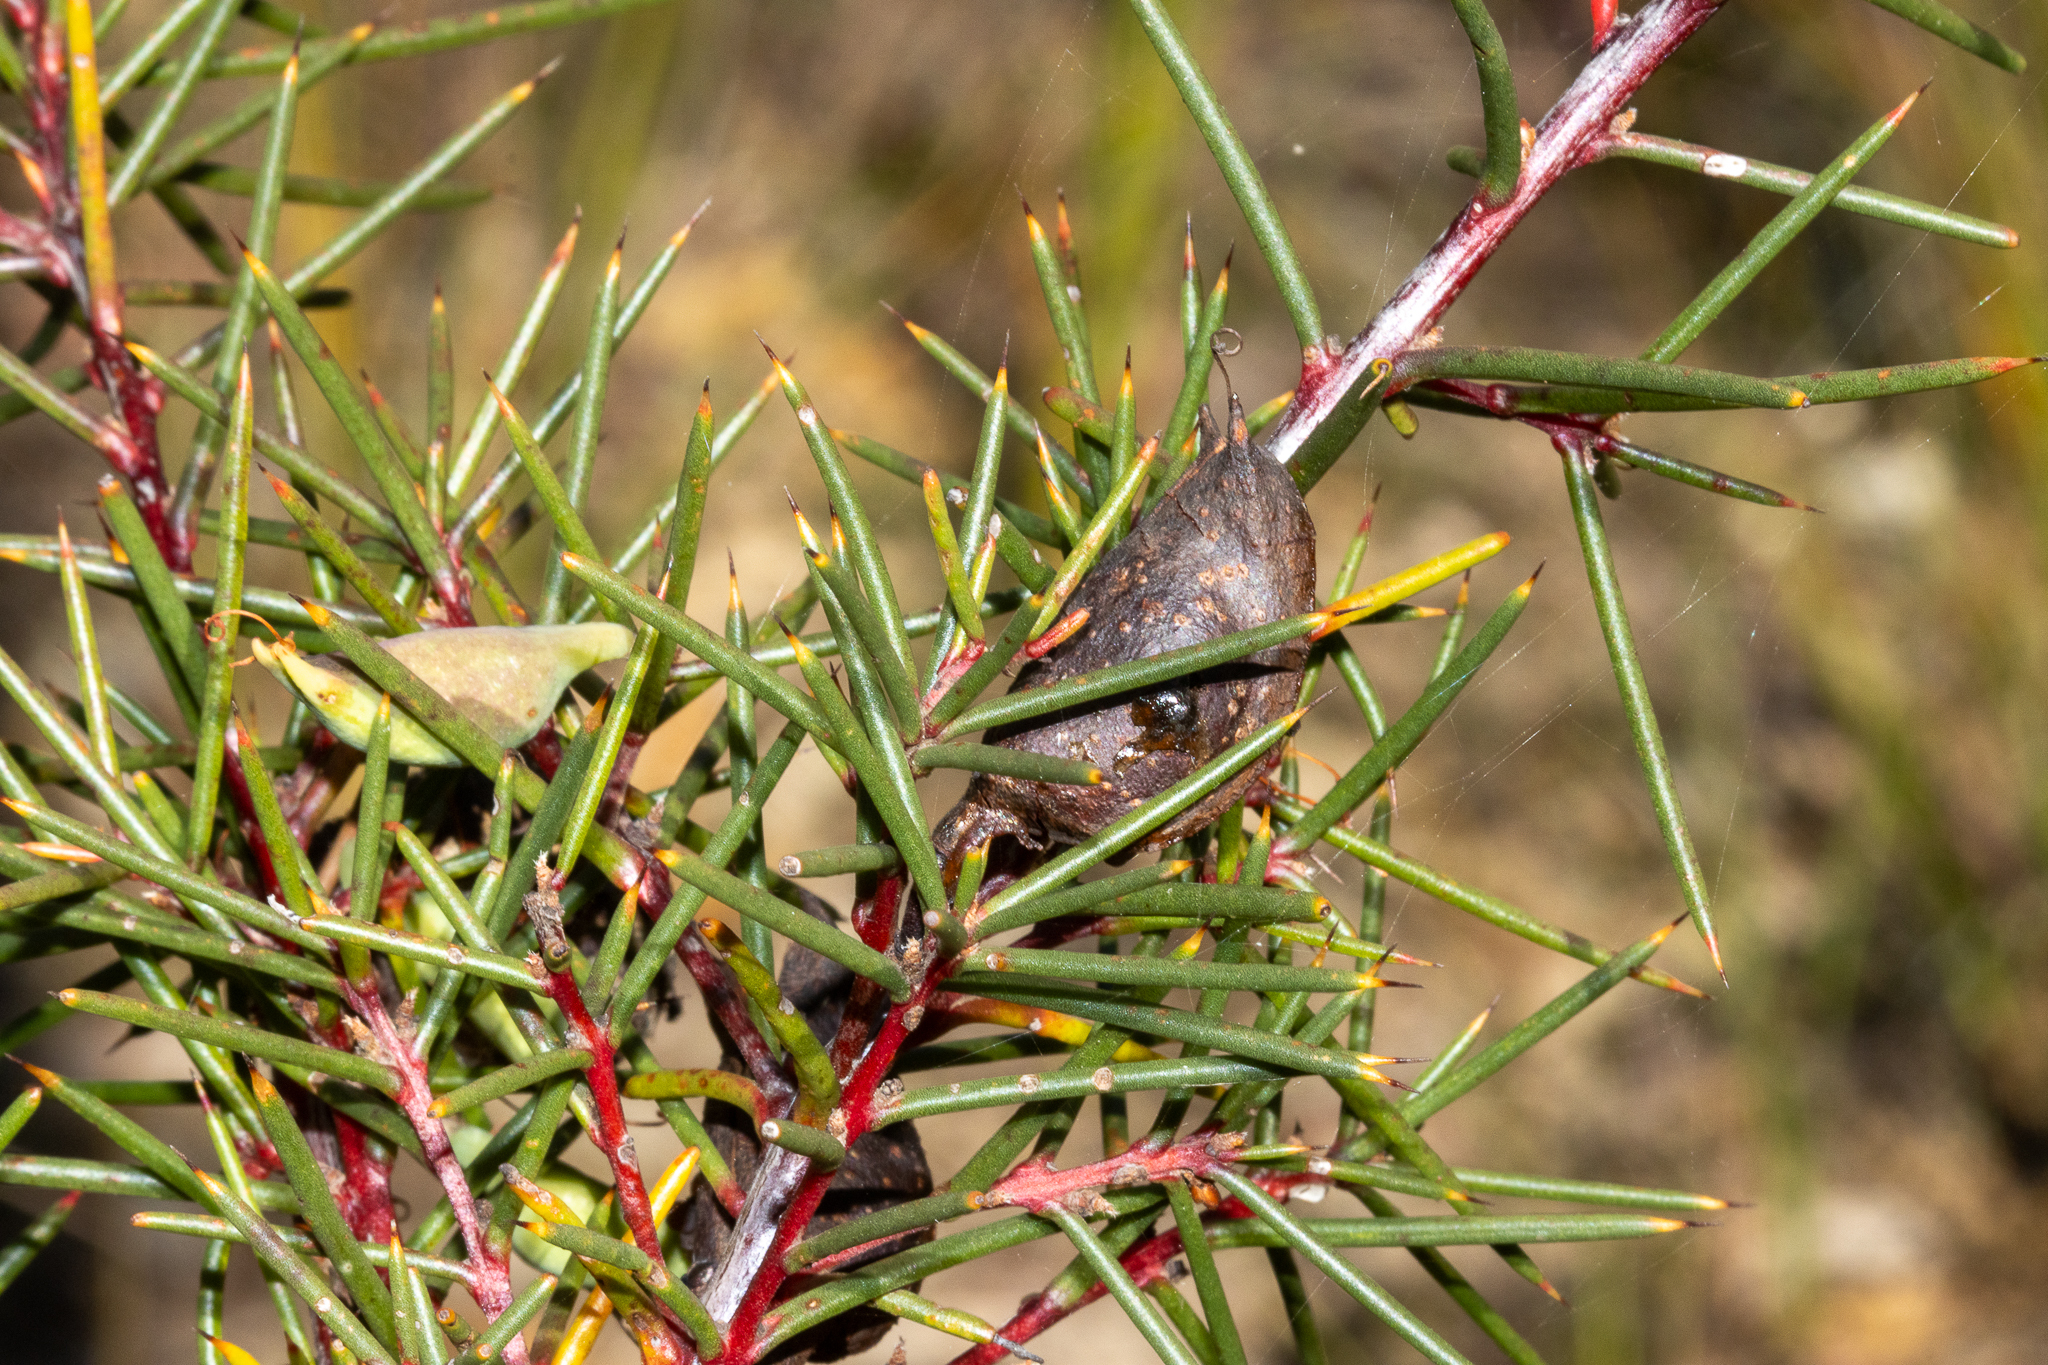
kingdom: Plantae
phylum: Tracheophyta
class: Magnoliopsida
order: Proteales
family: Proteaceae
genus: Hakea
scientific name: Hakea decurrens
